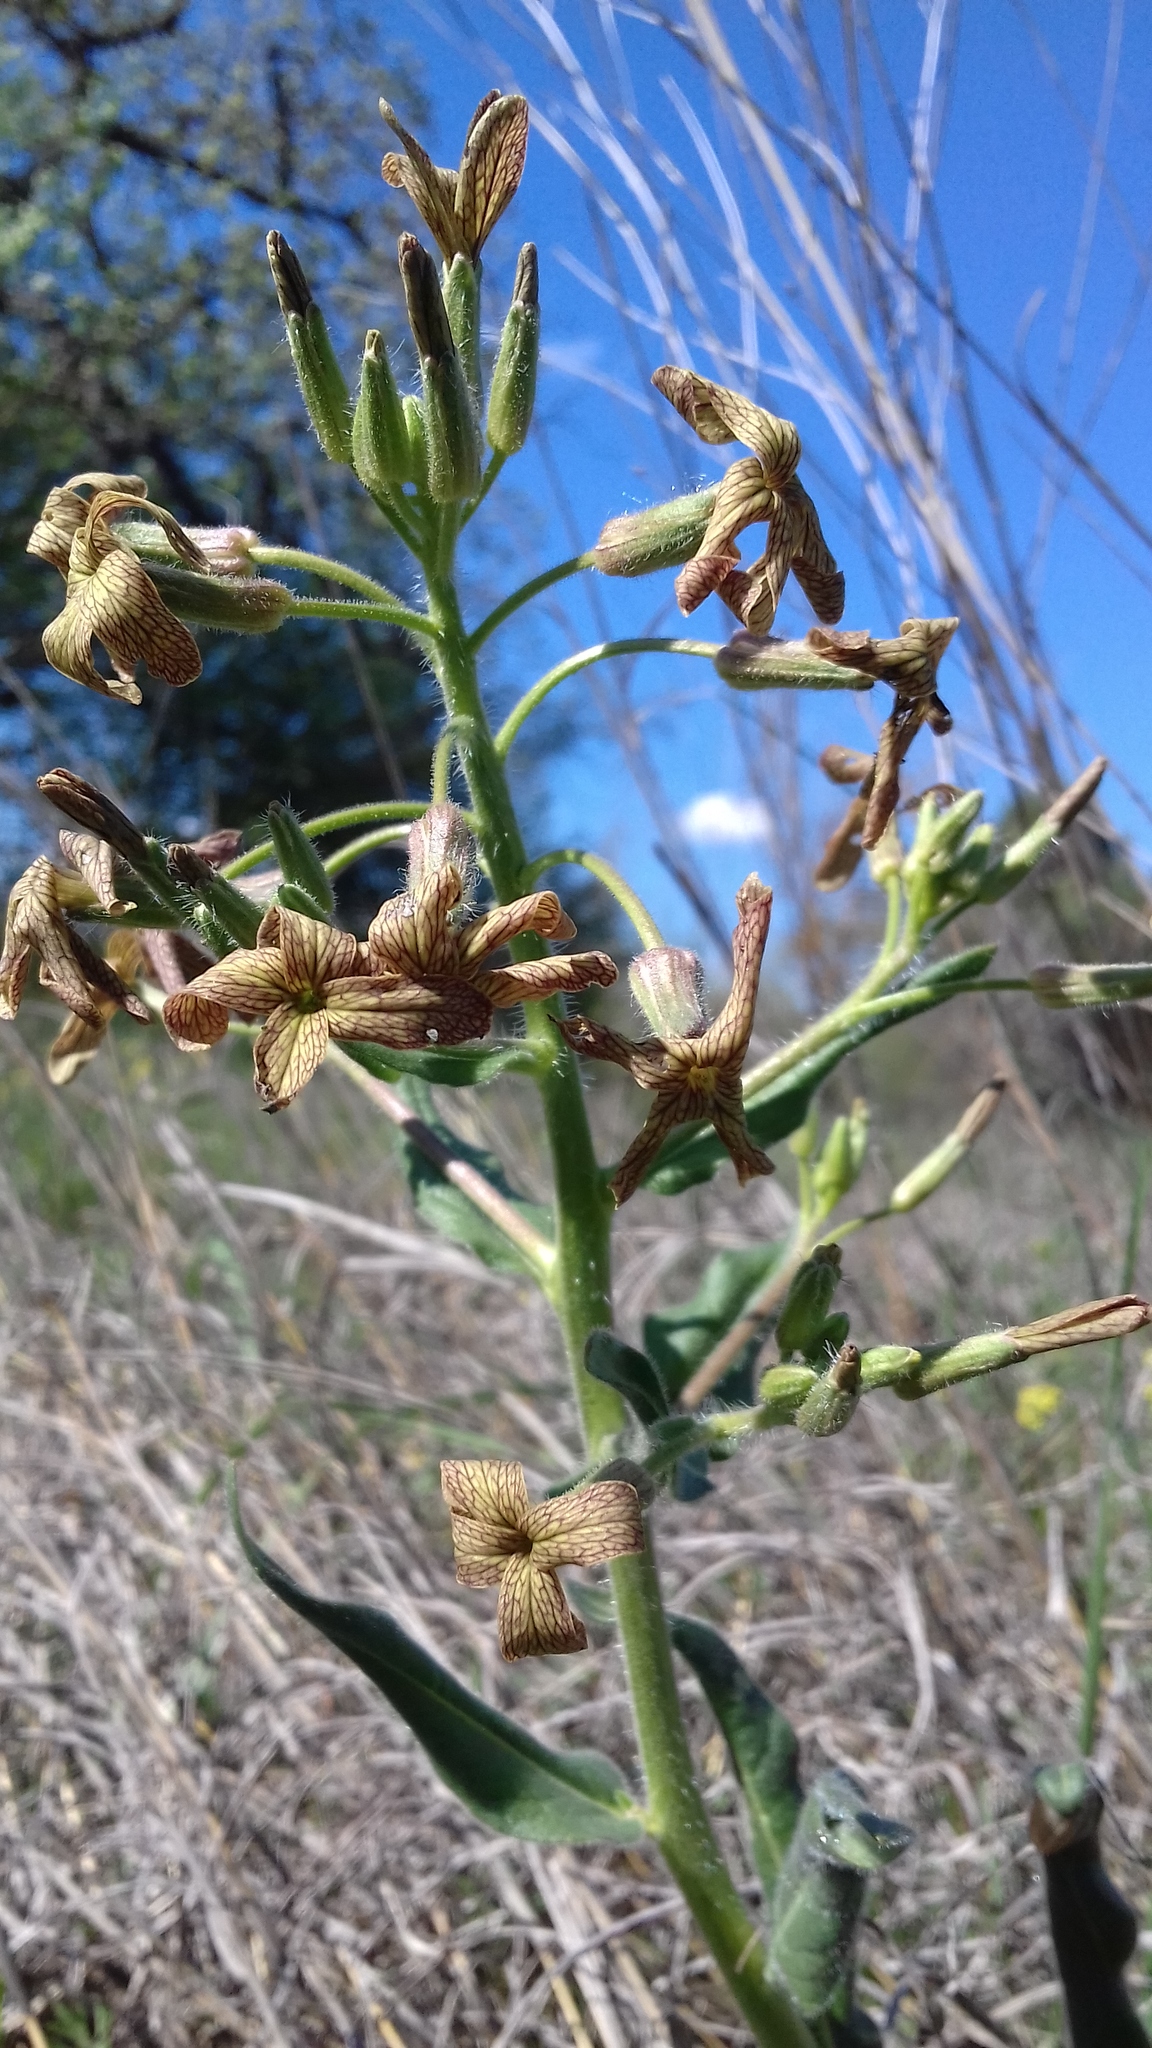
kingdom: Plantae
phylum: Tracheophyta
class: Magnoliopsida
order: Brassicales
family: Brassicaceae
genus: Hesperis
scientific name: Hesperis tristis
